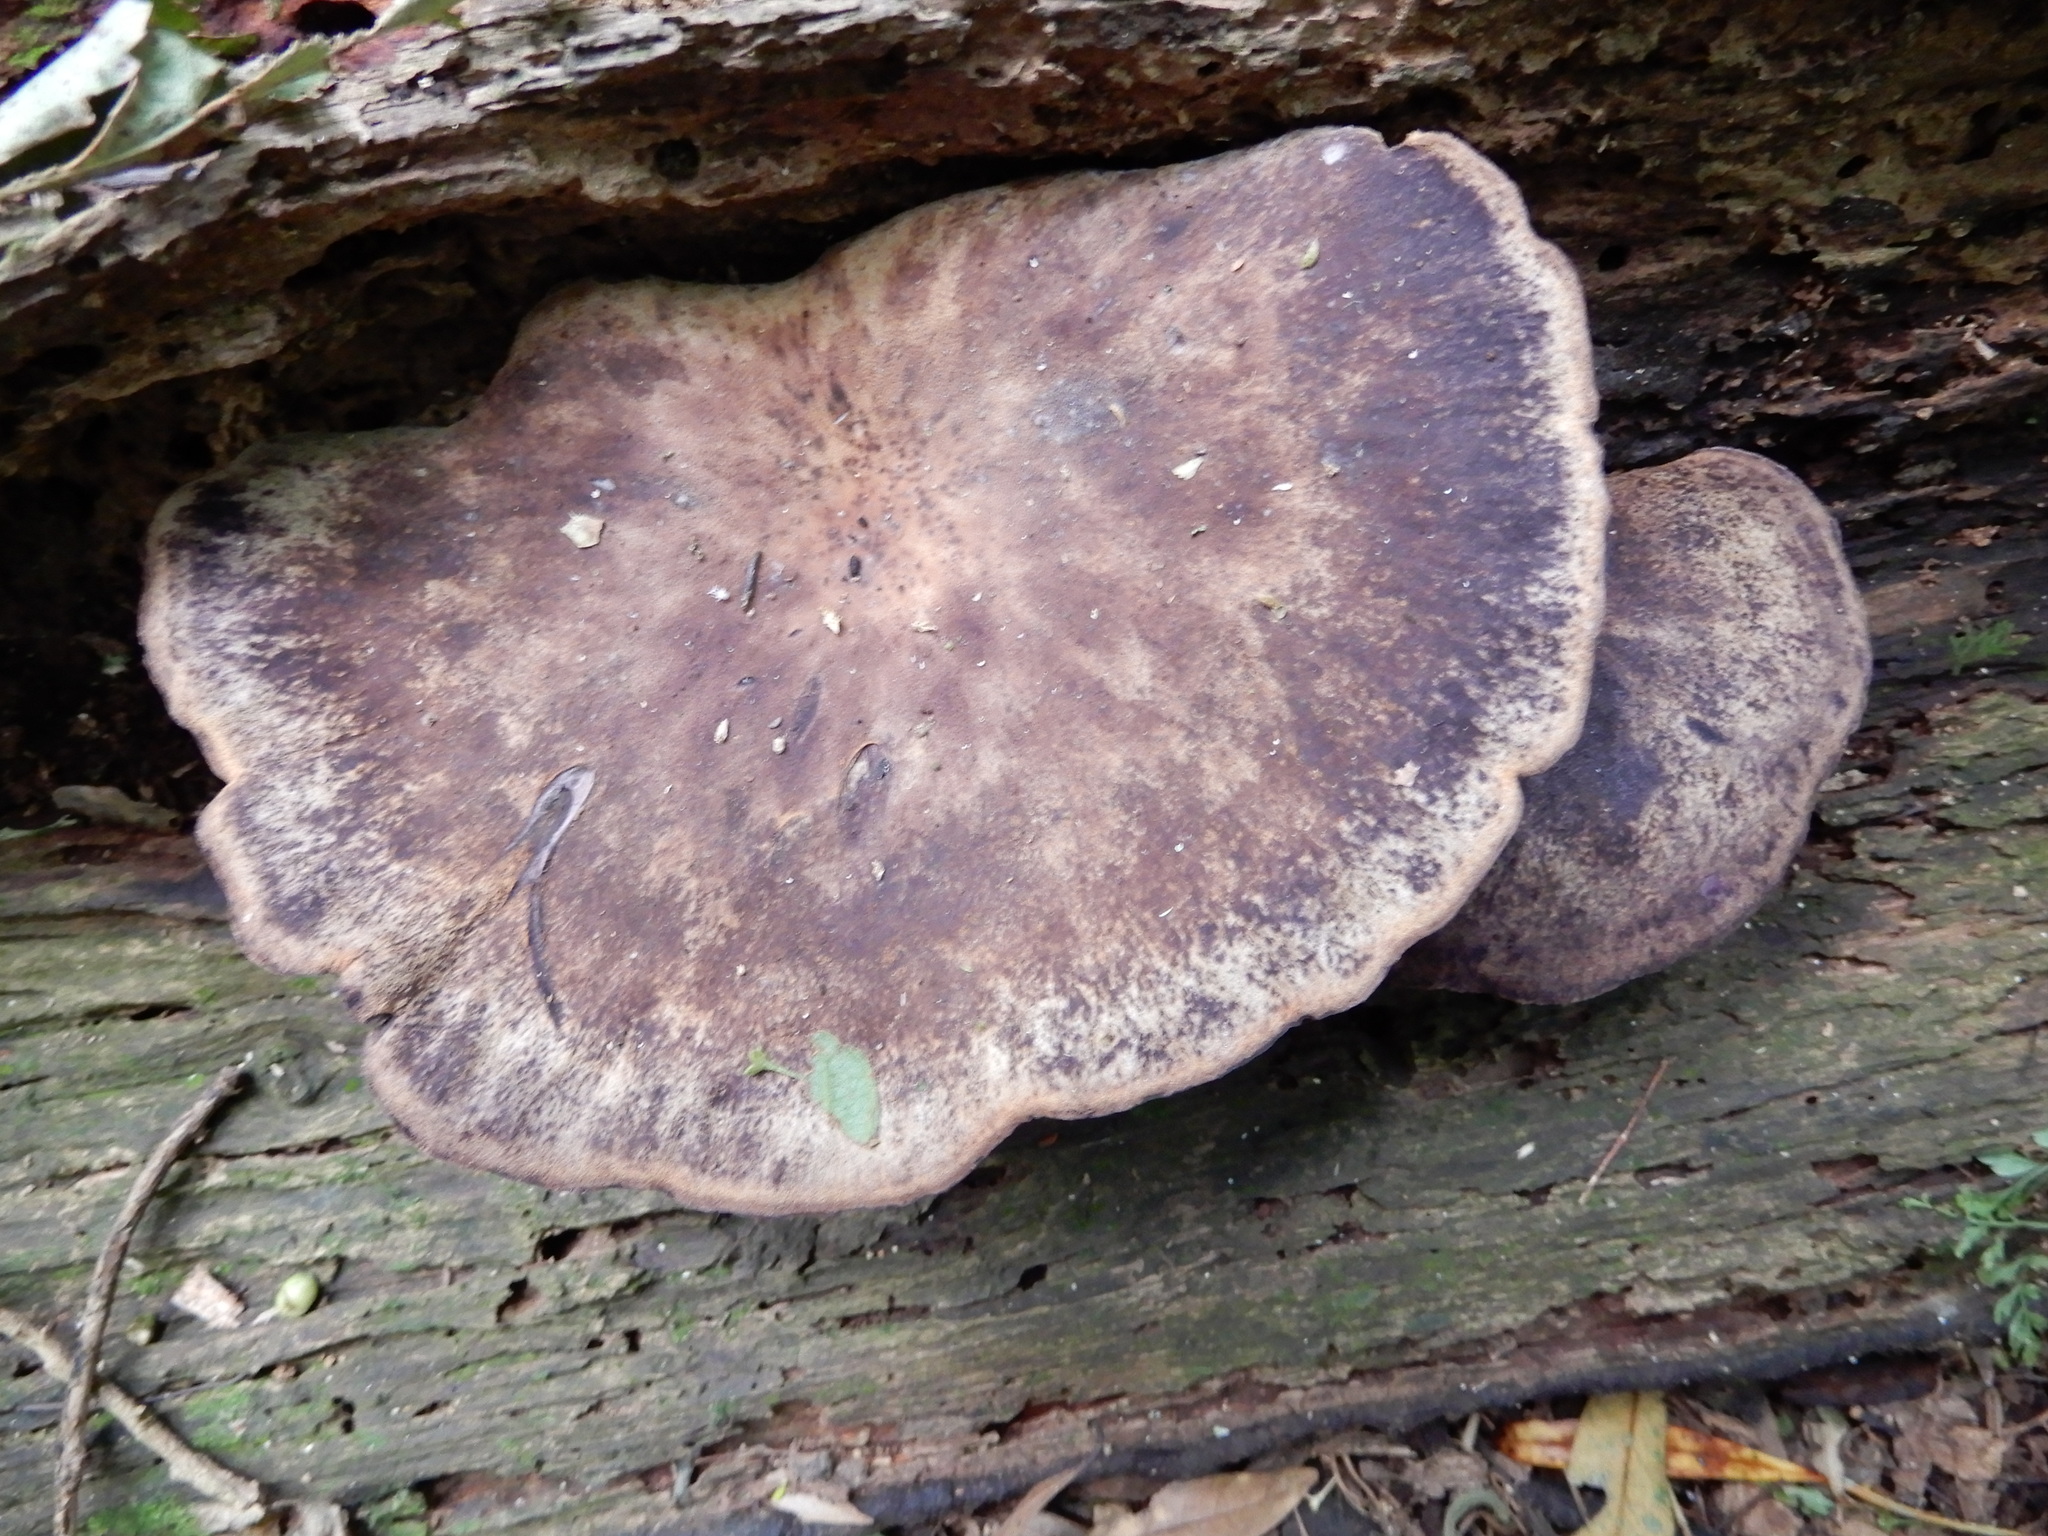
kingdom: Fungi
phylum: Basidiomycota
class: Agaricomycetes
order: Polyporales
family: Panaceae
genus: Panus
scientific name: Panus purpuratus
